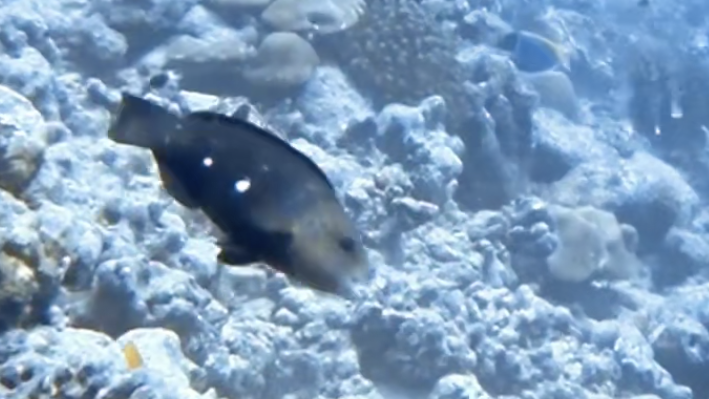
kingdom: Animalia
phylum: Chordata
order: Perciformes
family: Scaridae
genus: Chlorurus
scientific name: Chlorurus sordidus
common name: Bullethead parrotfish
